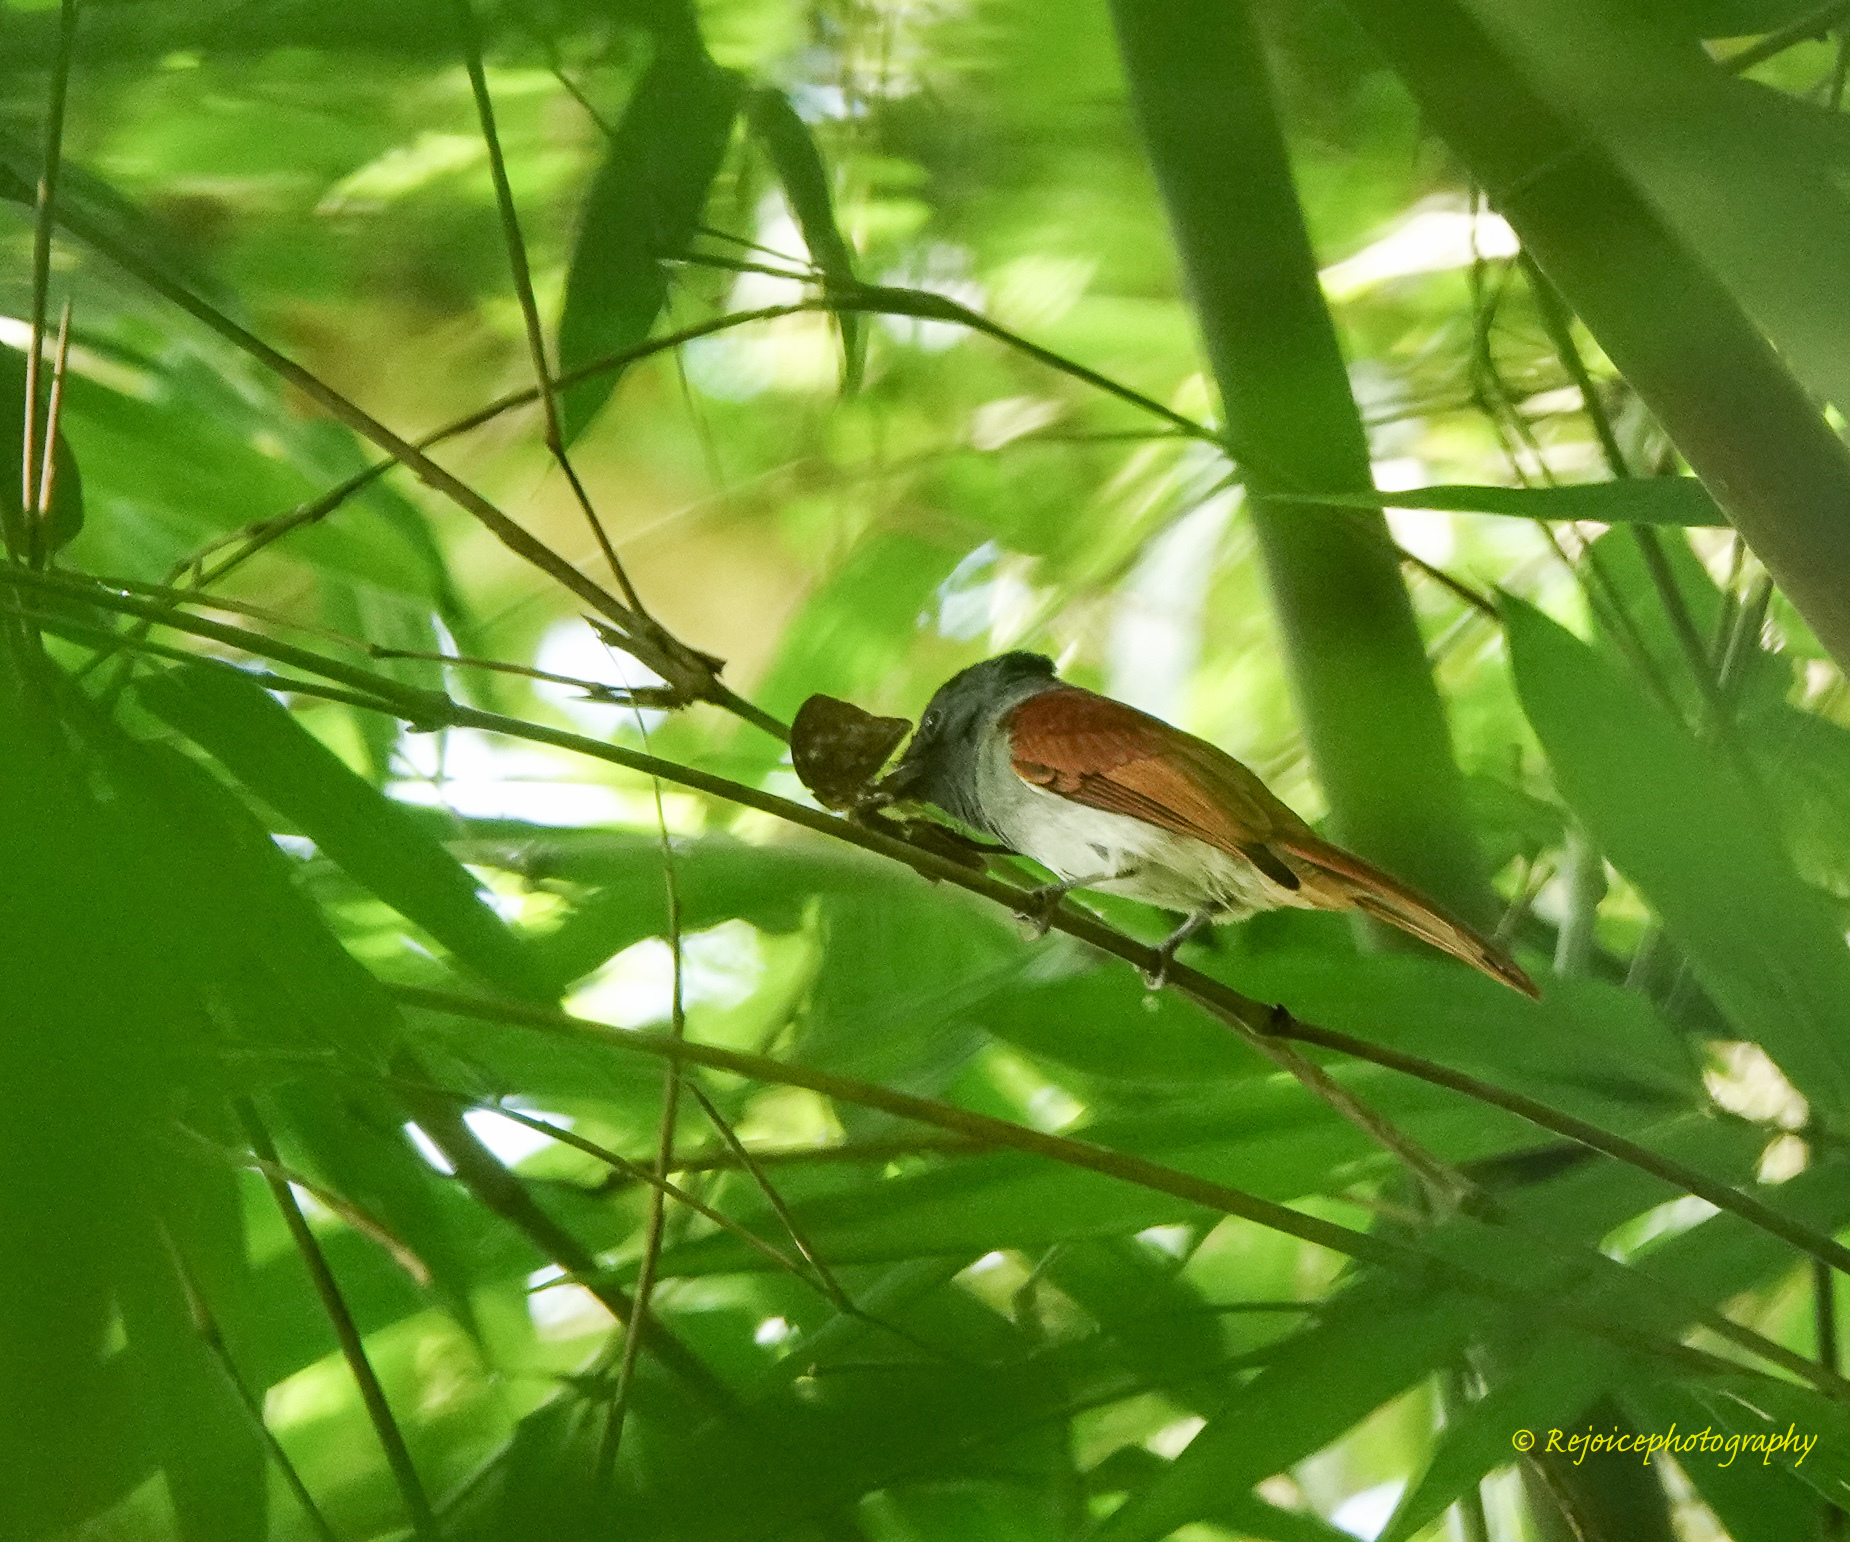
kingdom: Animalia
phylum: Chordata
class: Aves
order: Passeriformes
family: Monarchidae
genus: Terpsiphone
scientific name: Terpsiphone paradisi
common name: Indian paradise flycatcher
